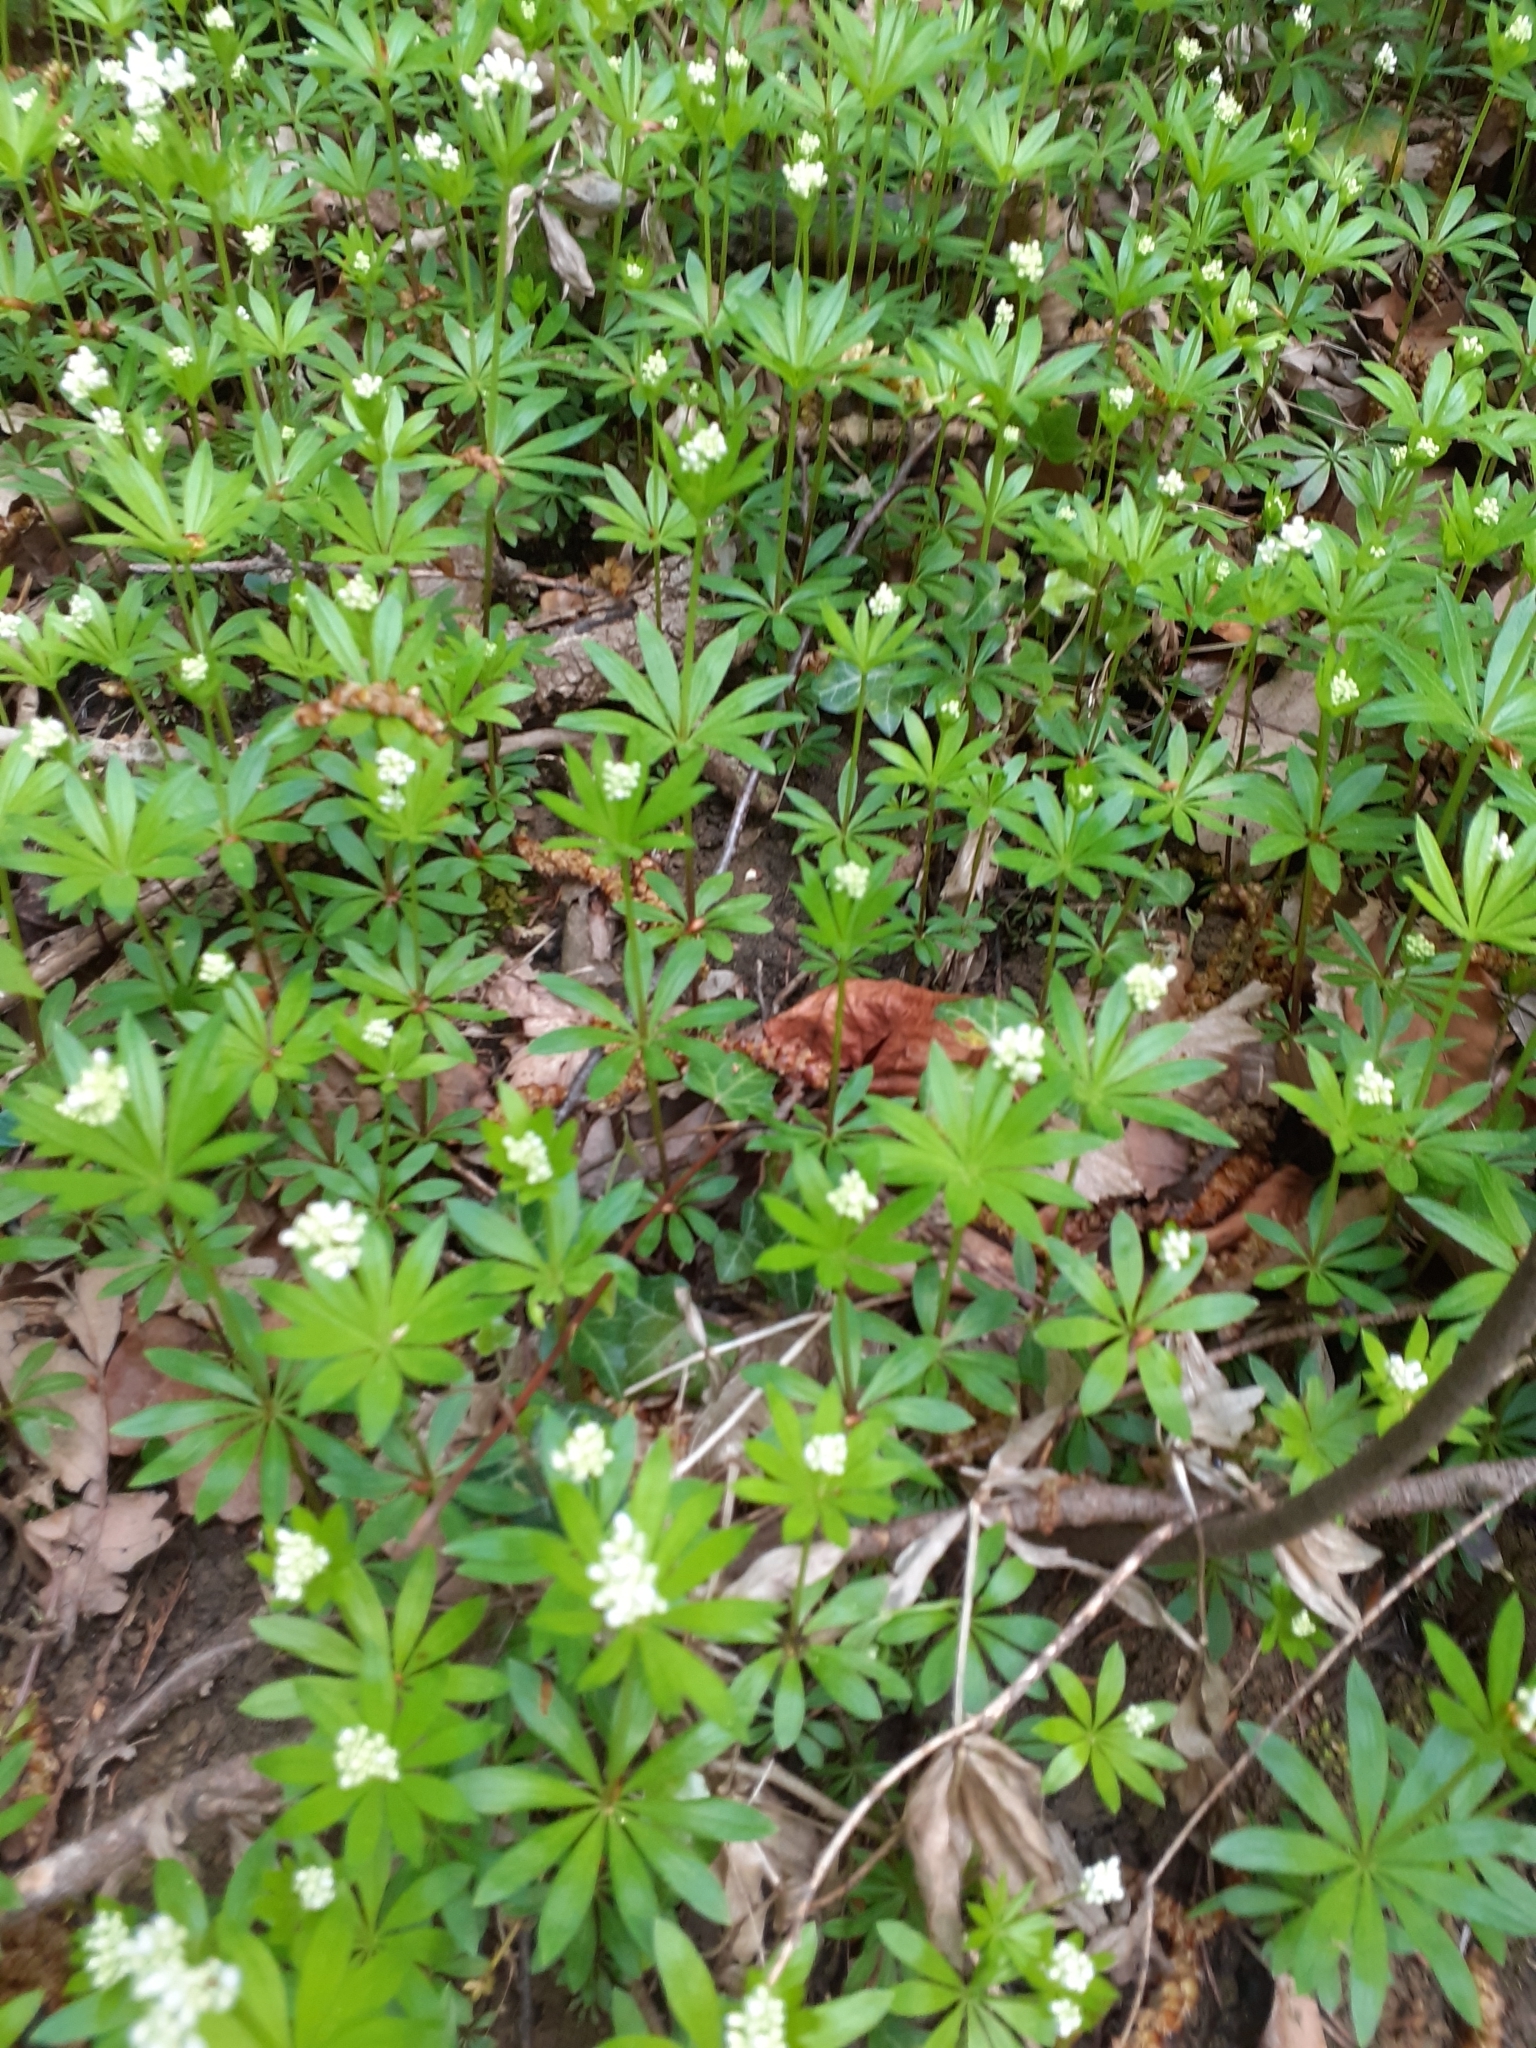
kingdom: Plantae
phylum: Tracheophyta
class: Magnoliopsida
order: Gentianales
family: Rubiaceae
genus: Galium
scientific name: Galium odoratum
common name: Sweet woodruff
